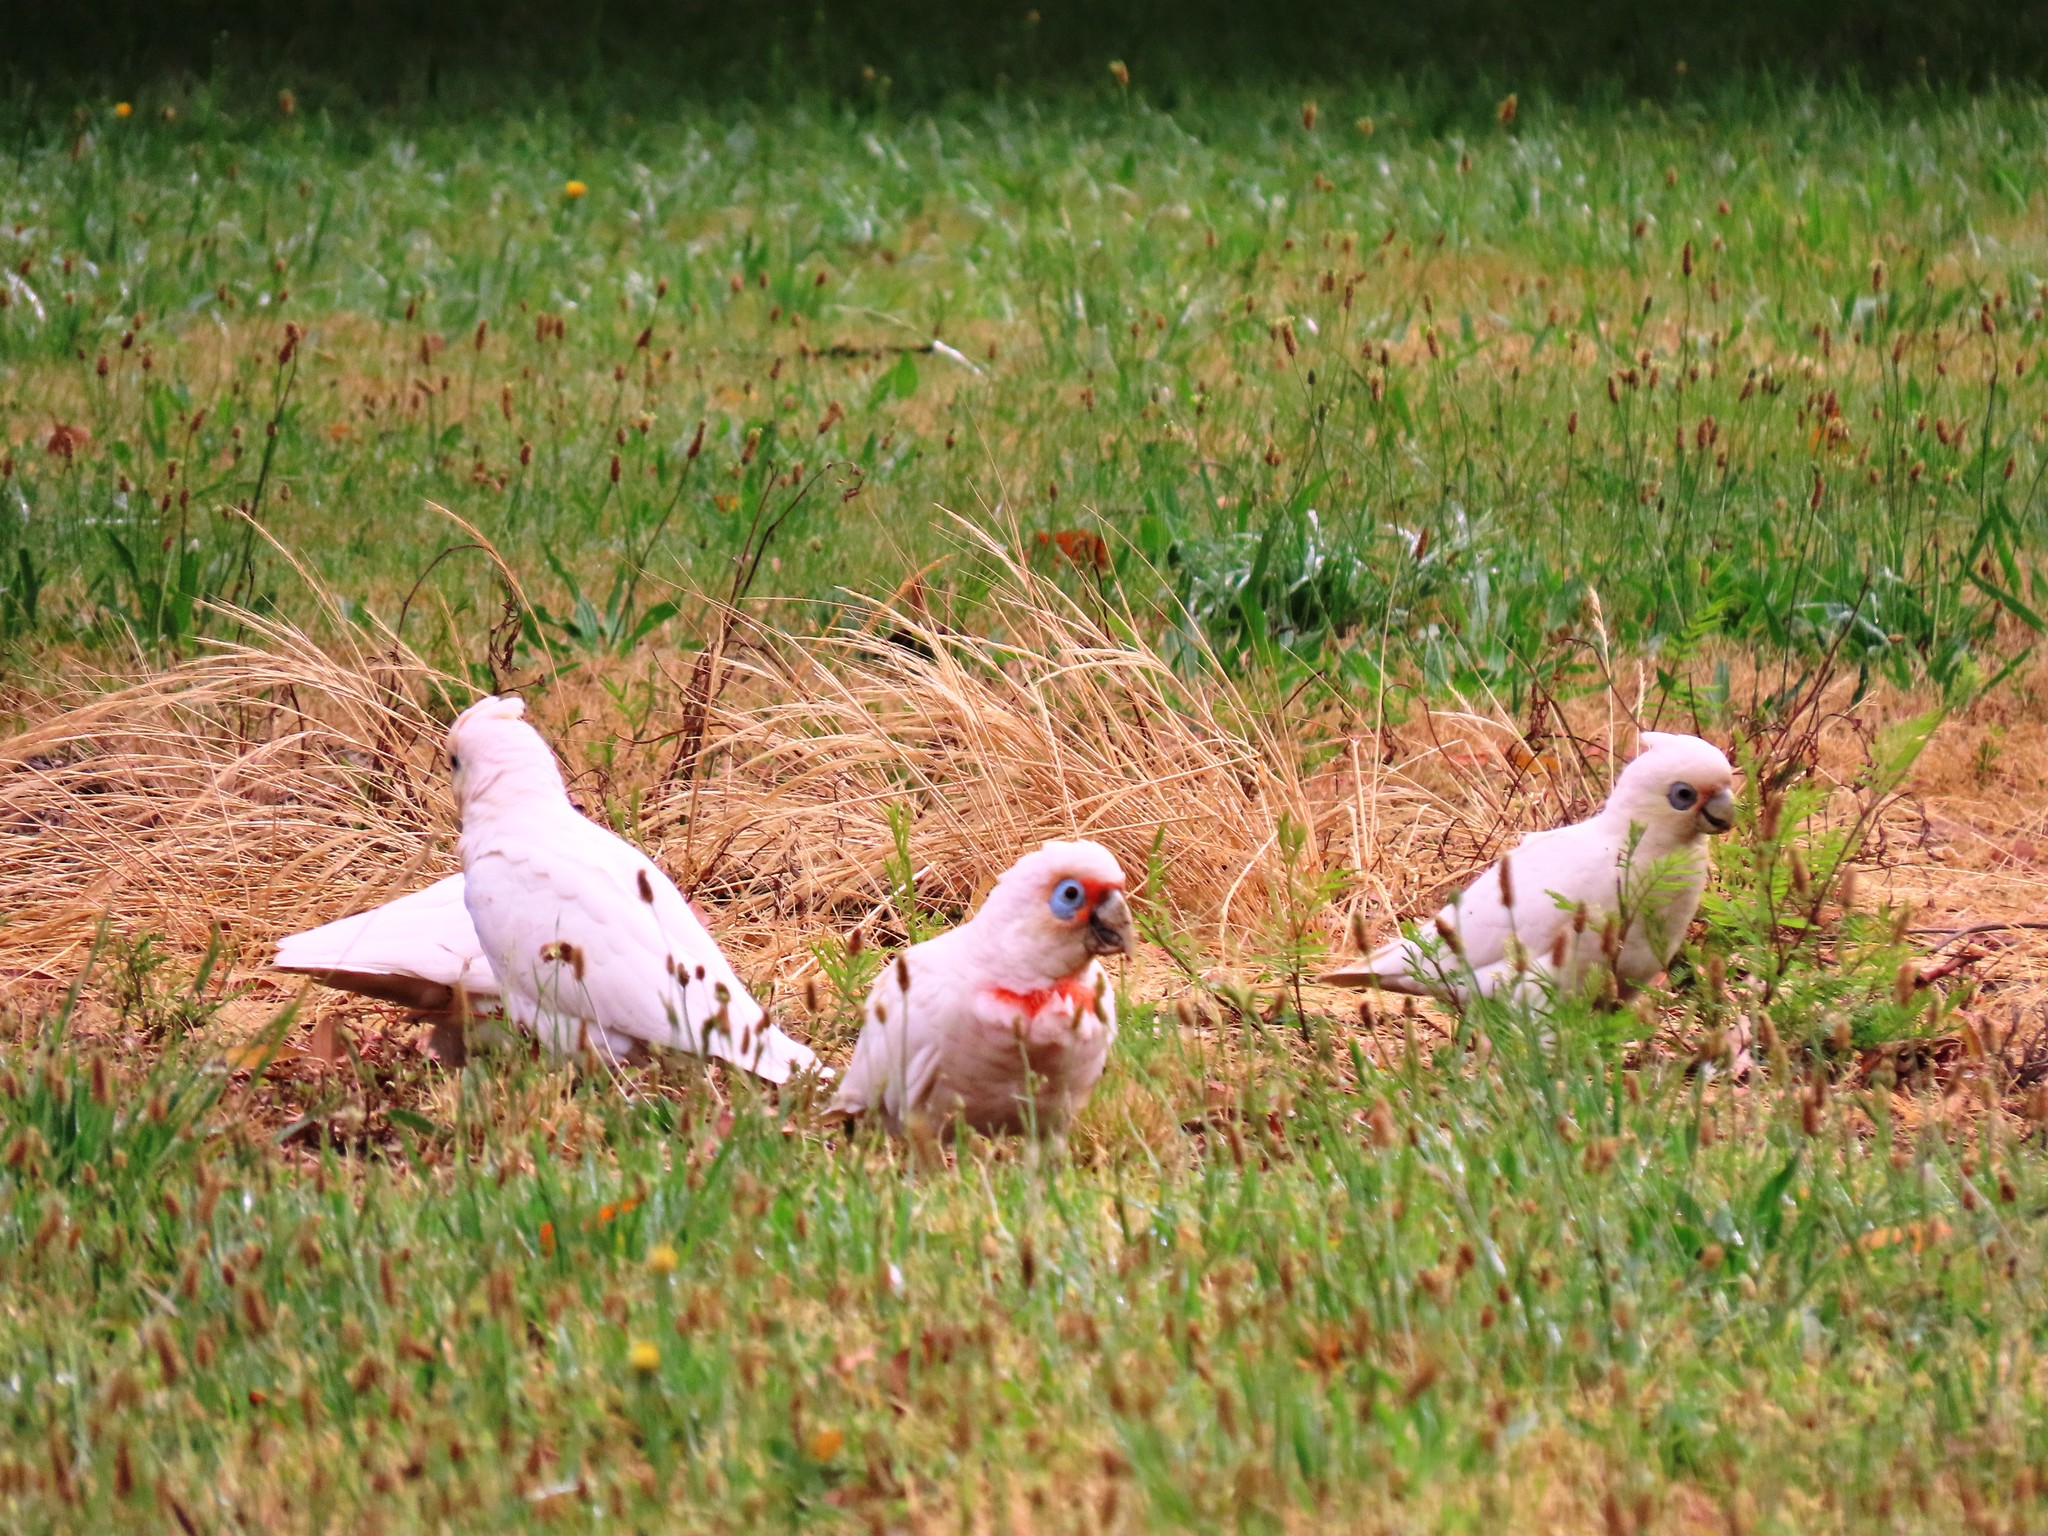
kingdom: Animalia
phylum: Chordata
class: Aves
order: Psittaciformes
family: Psittacidae
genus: Cacatua
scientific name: Cacatua tenuirostris
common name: Long-billed corella
